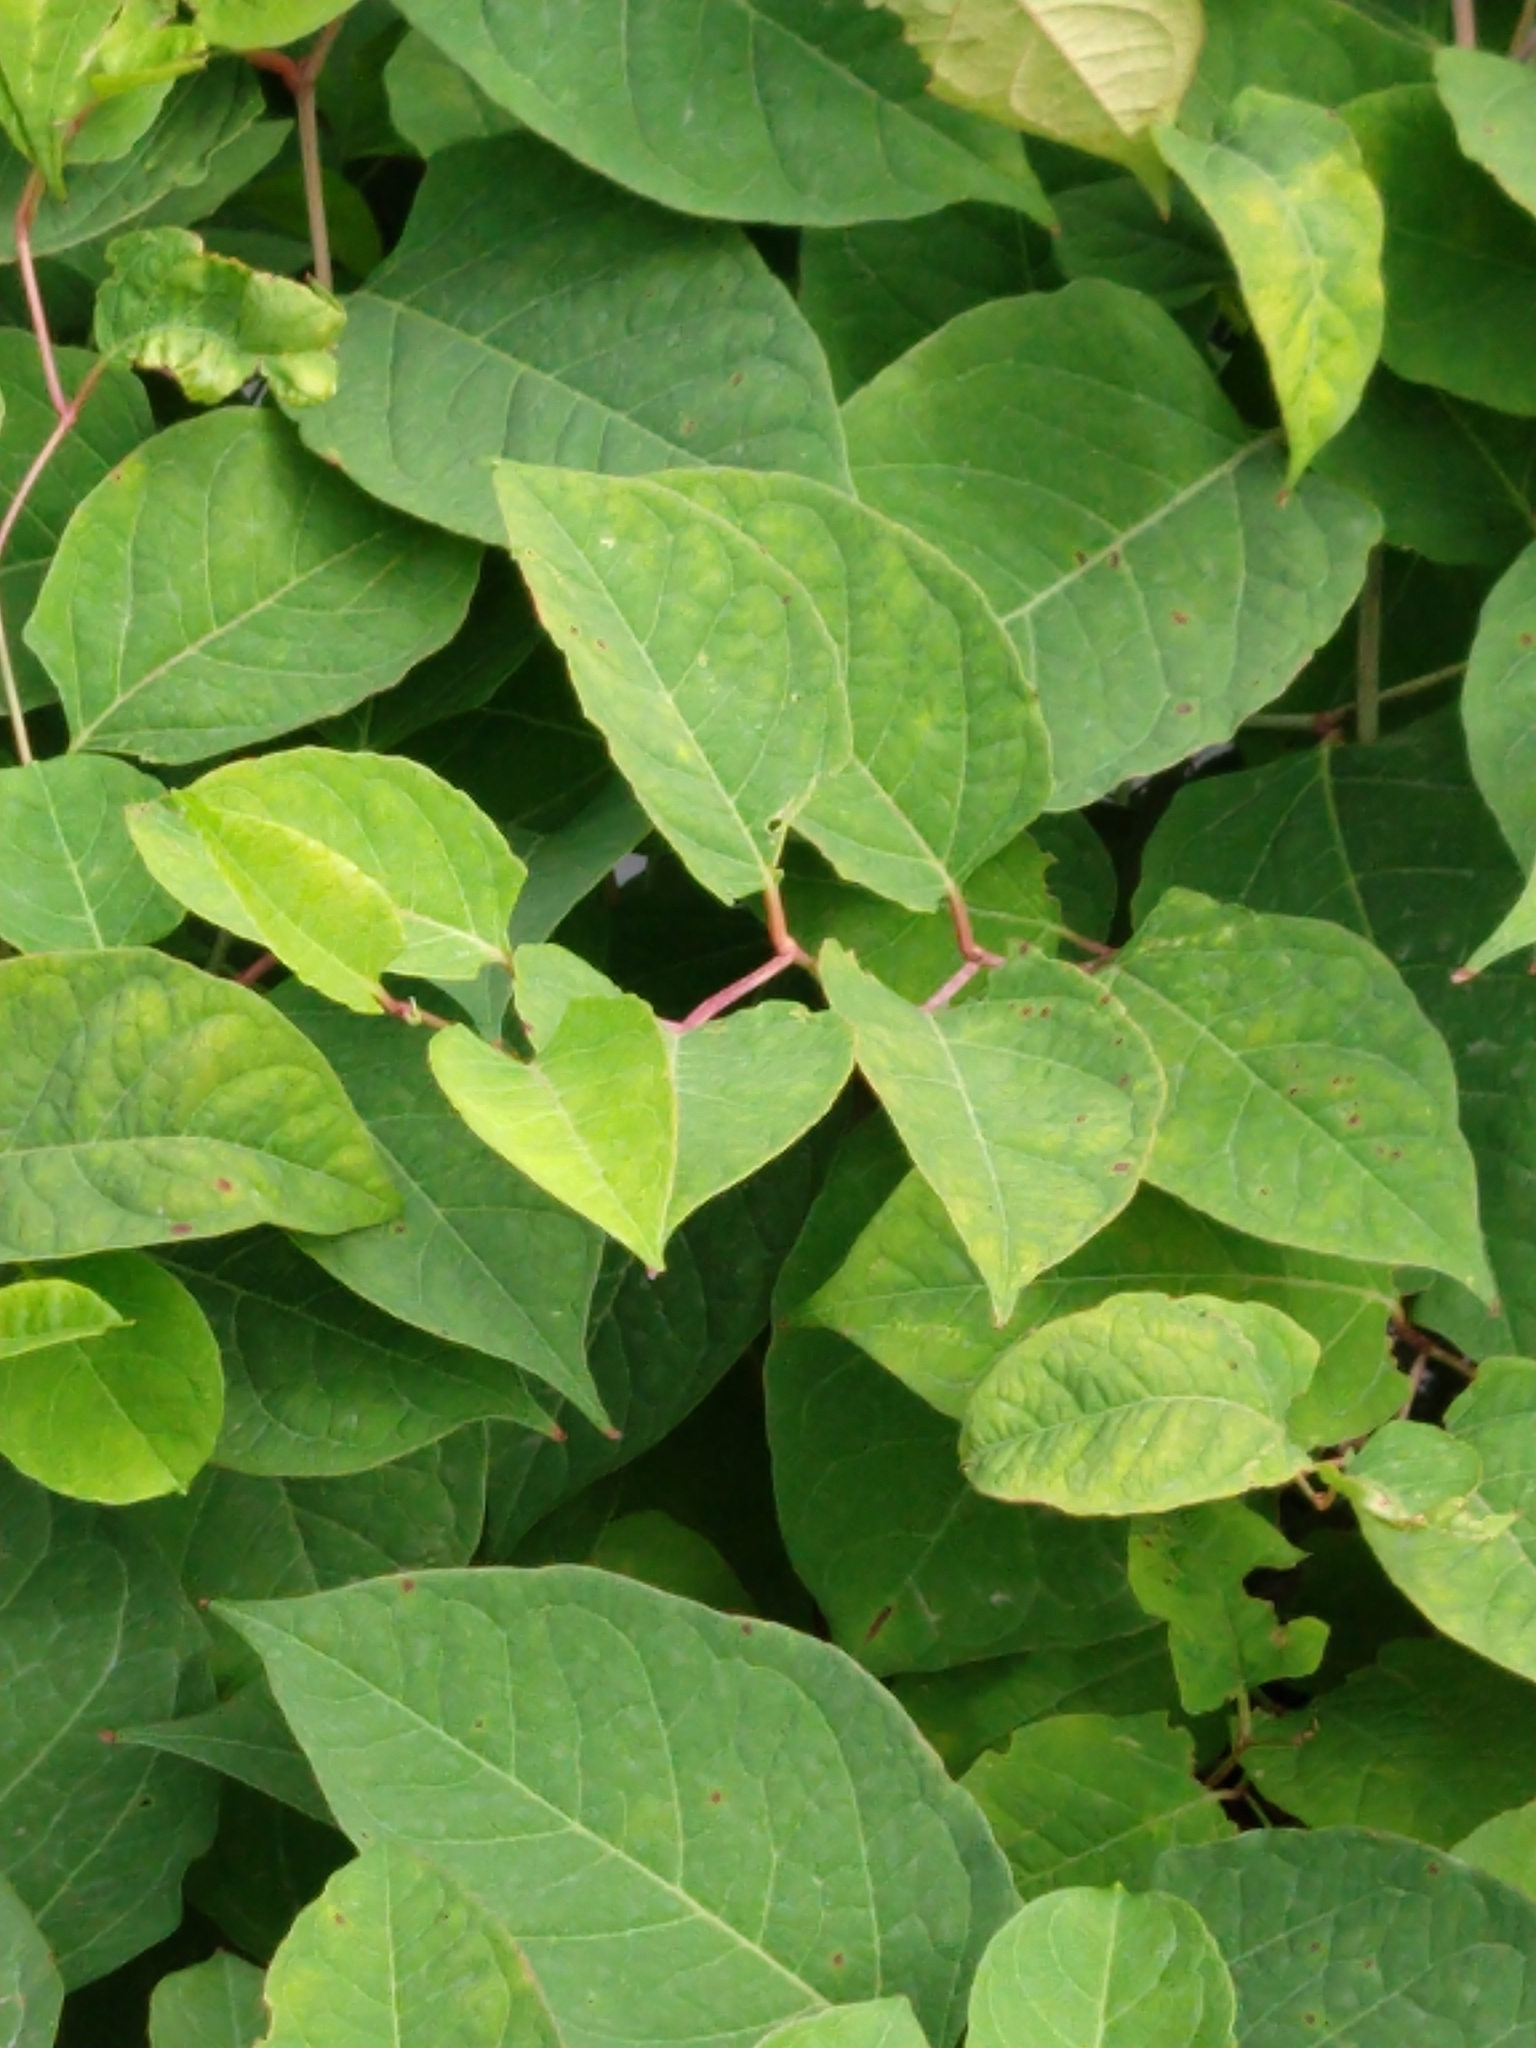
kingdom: Plantae
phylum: Tracheophyta
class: Magnoliopsida
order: Caryophyllales
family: Polygonaceae
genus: Reynoutria
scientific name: Reynoutria japonica
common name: Japanese knotweed
